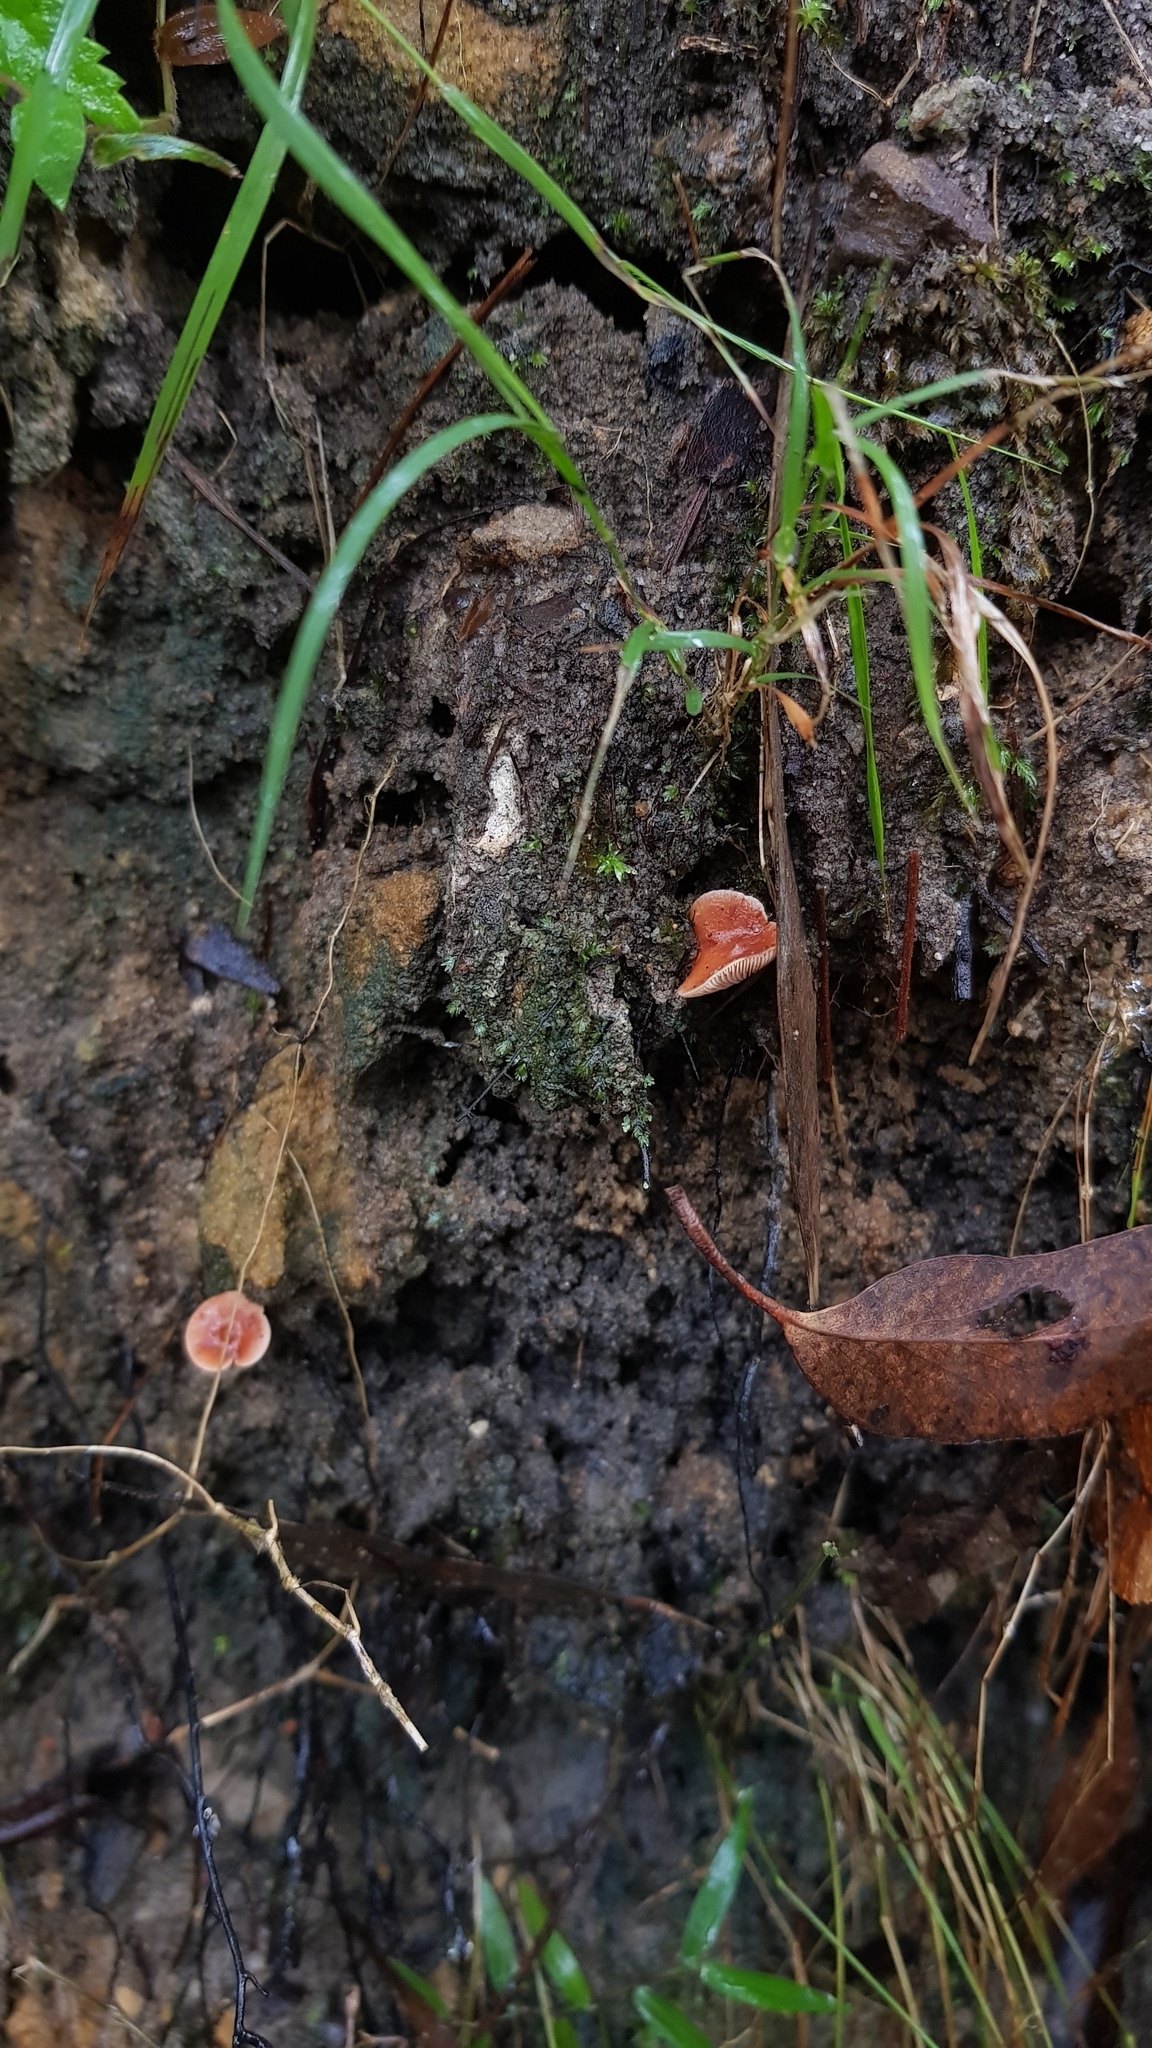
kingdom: Fungi
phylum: Basidiomycota
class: Agaricomycetes
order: Russulales
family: Russulaceae
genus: Lactarius
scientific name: Lactarius eucalypti
